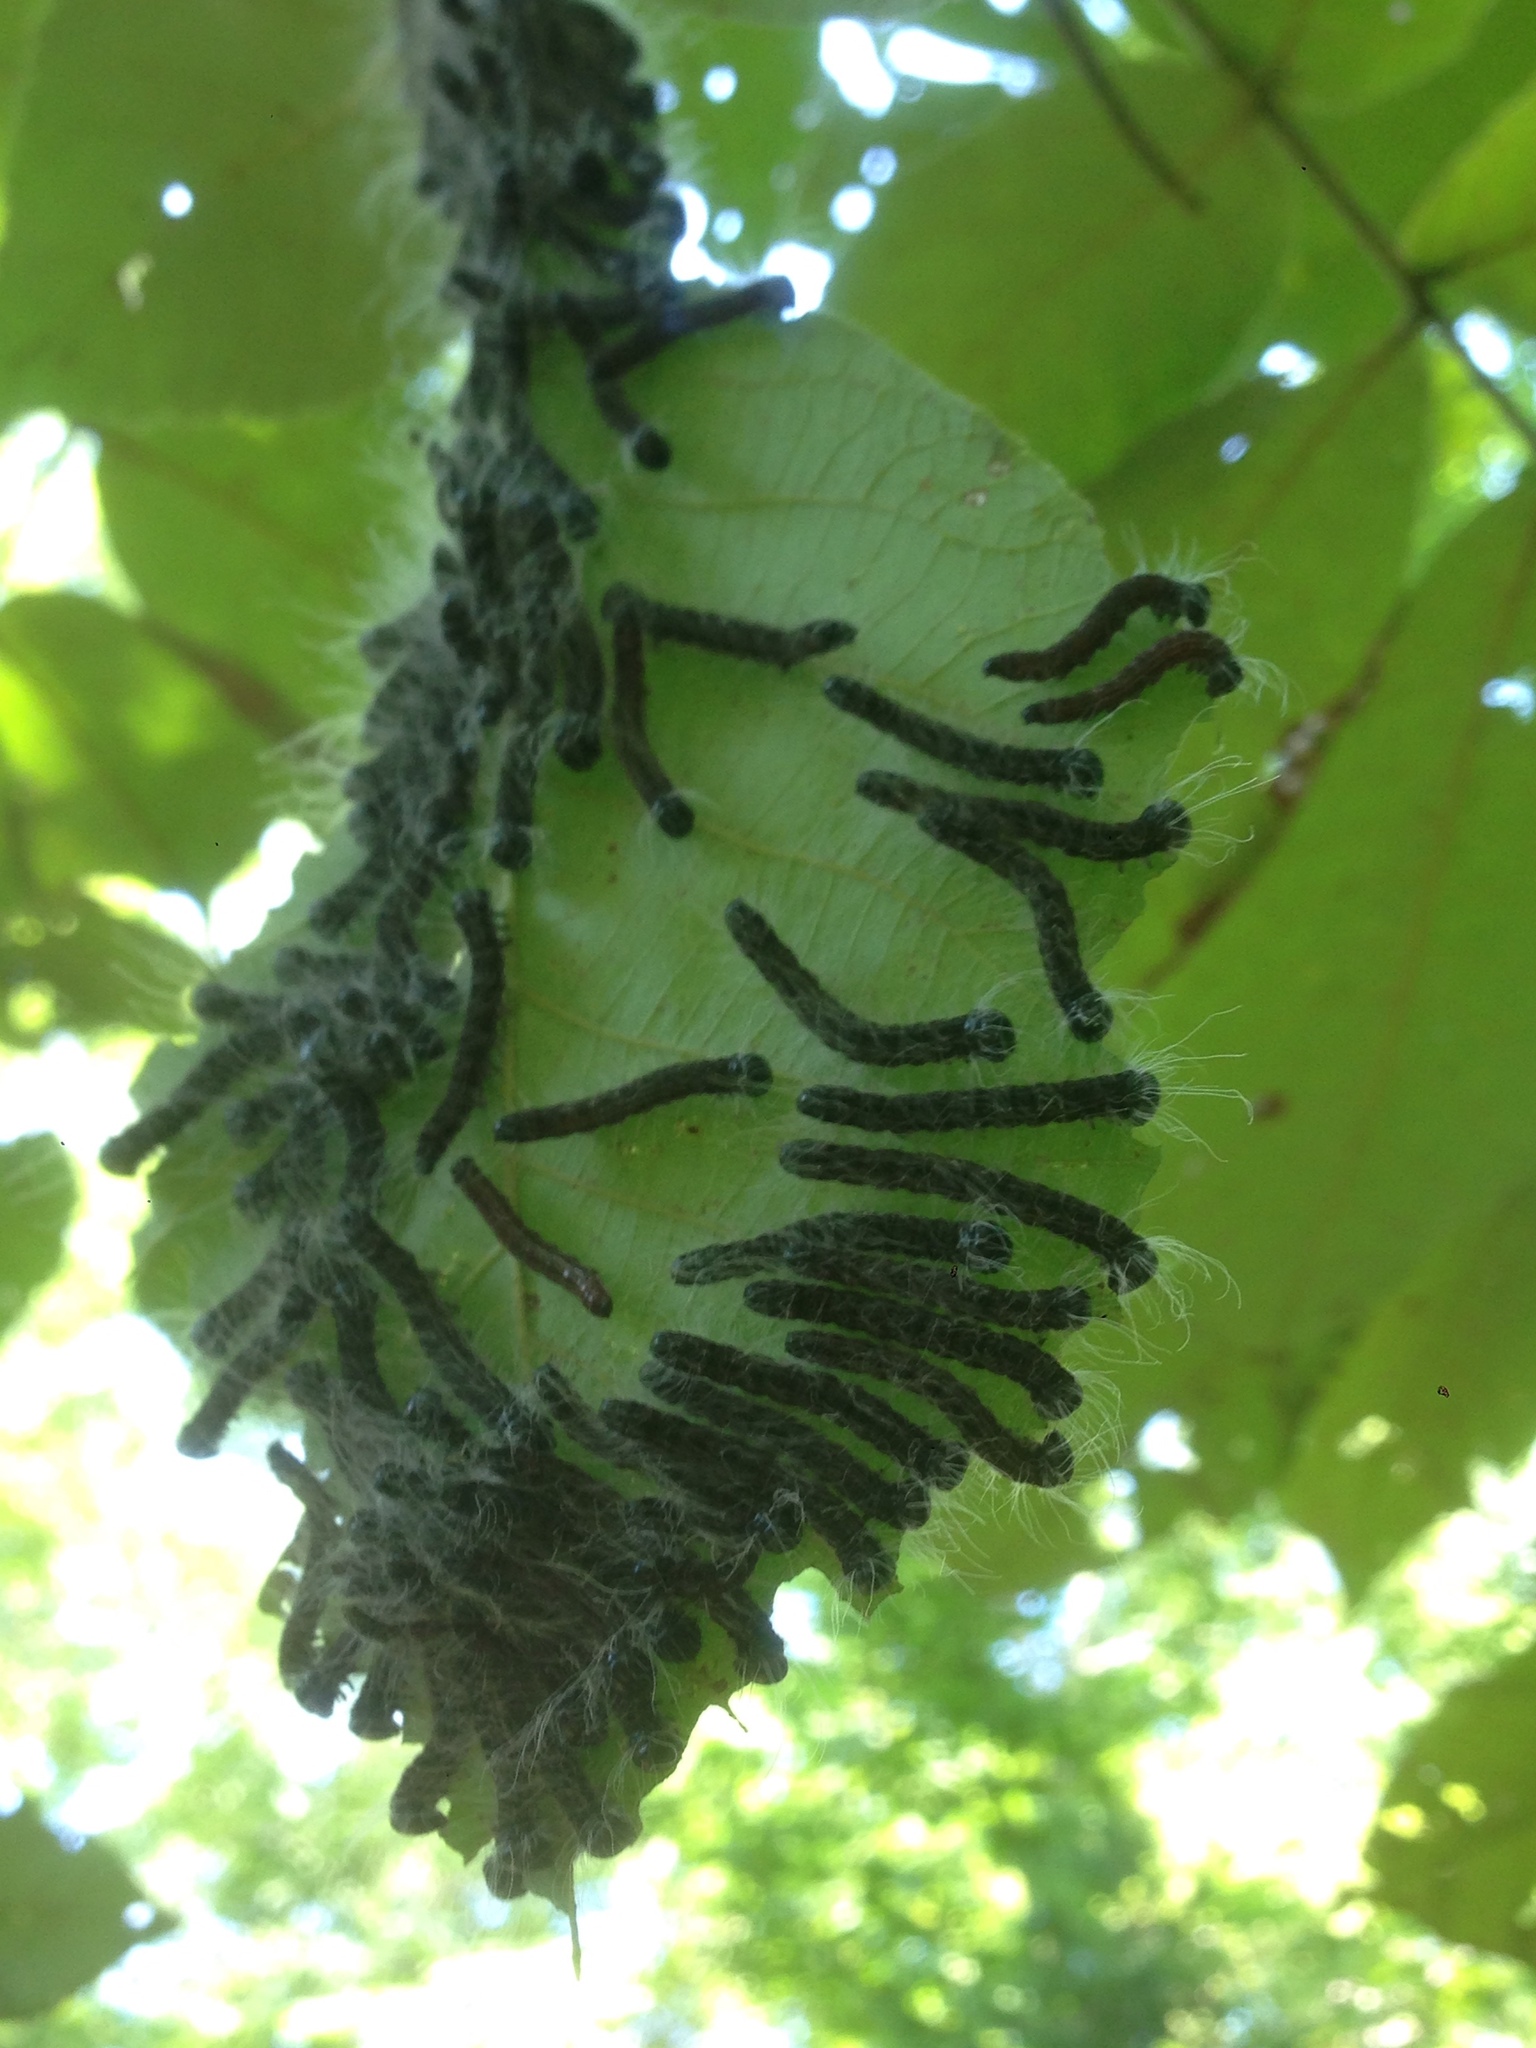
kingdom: Animalia
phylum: Arthropoda
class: Insecta
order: Lepidoptera
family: Notodontidae
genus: Datana
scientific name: Datana integerrima
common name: Walnut caterpillar
